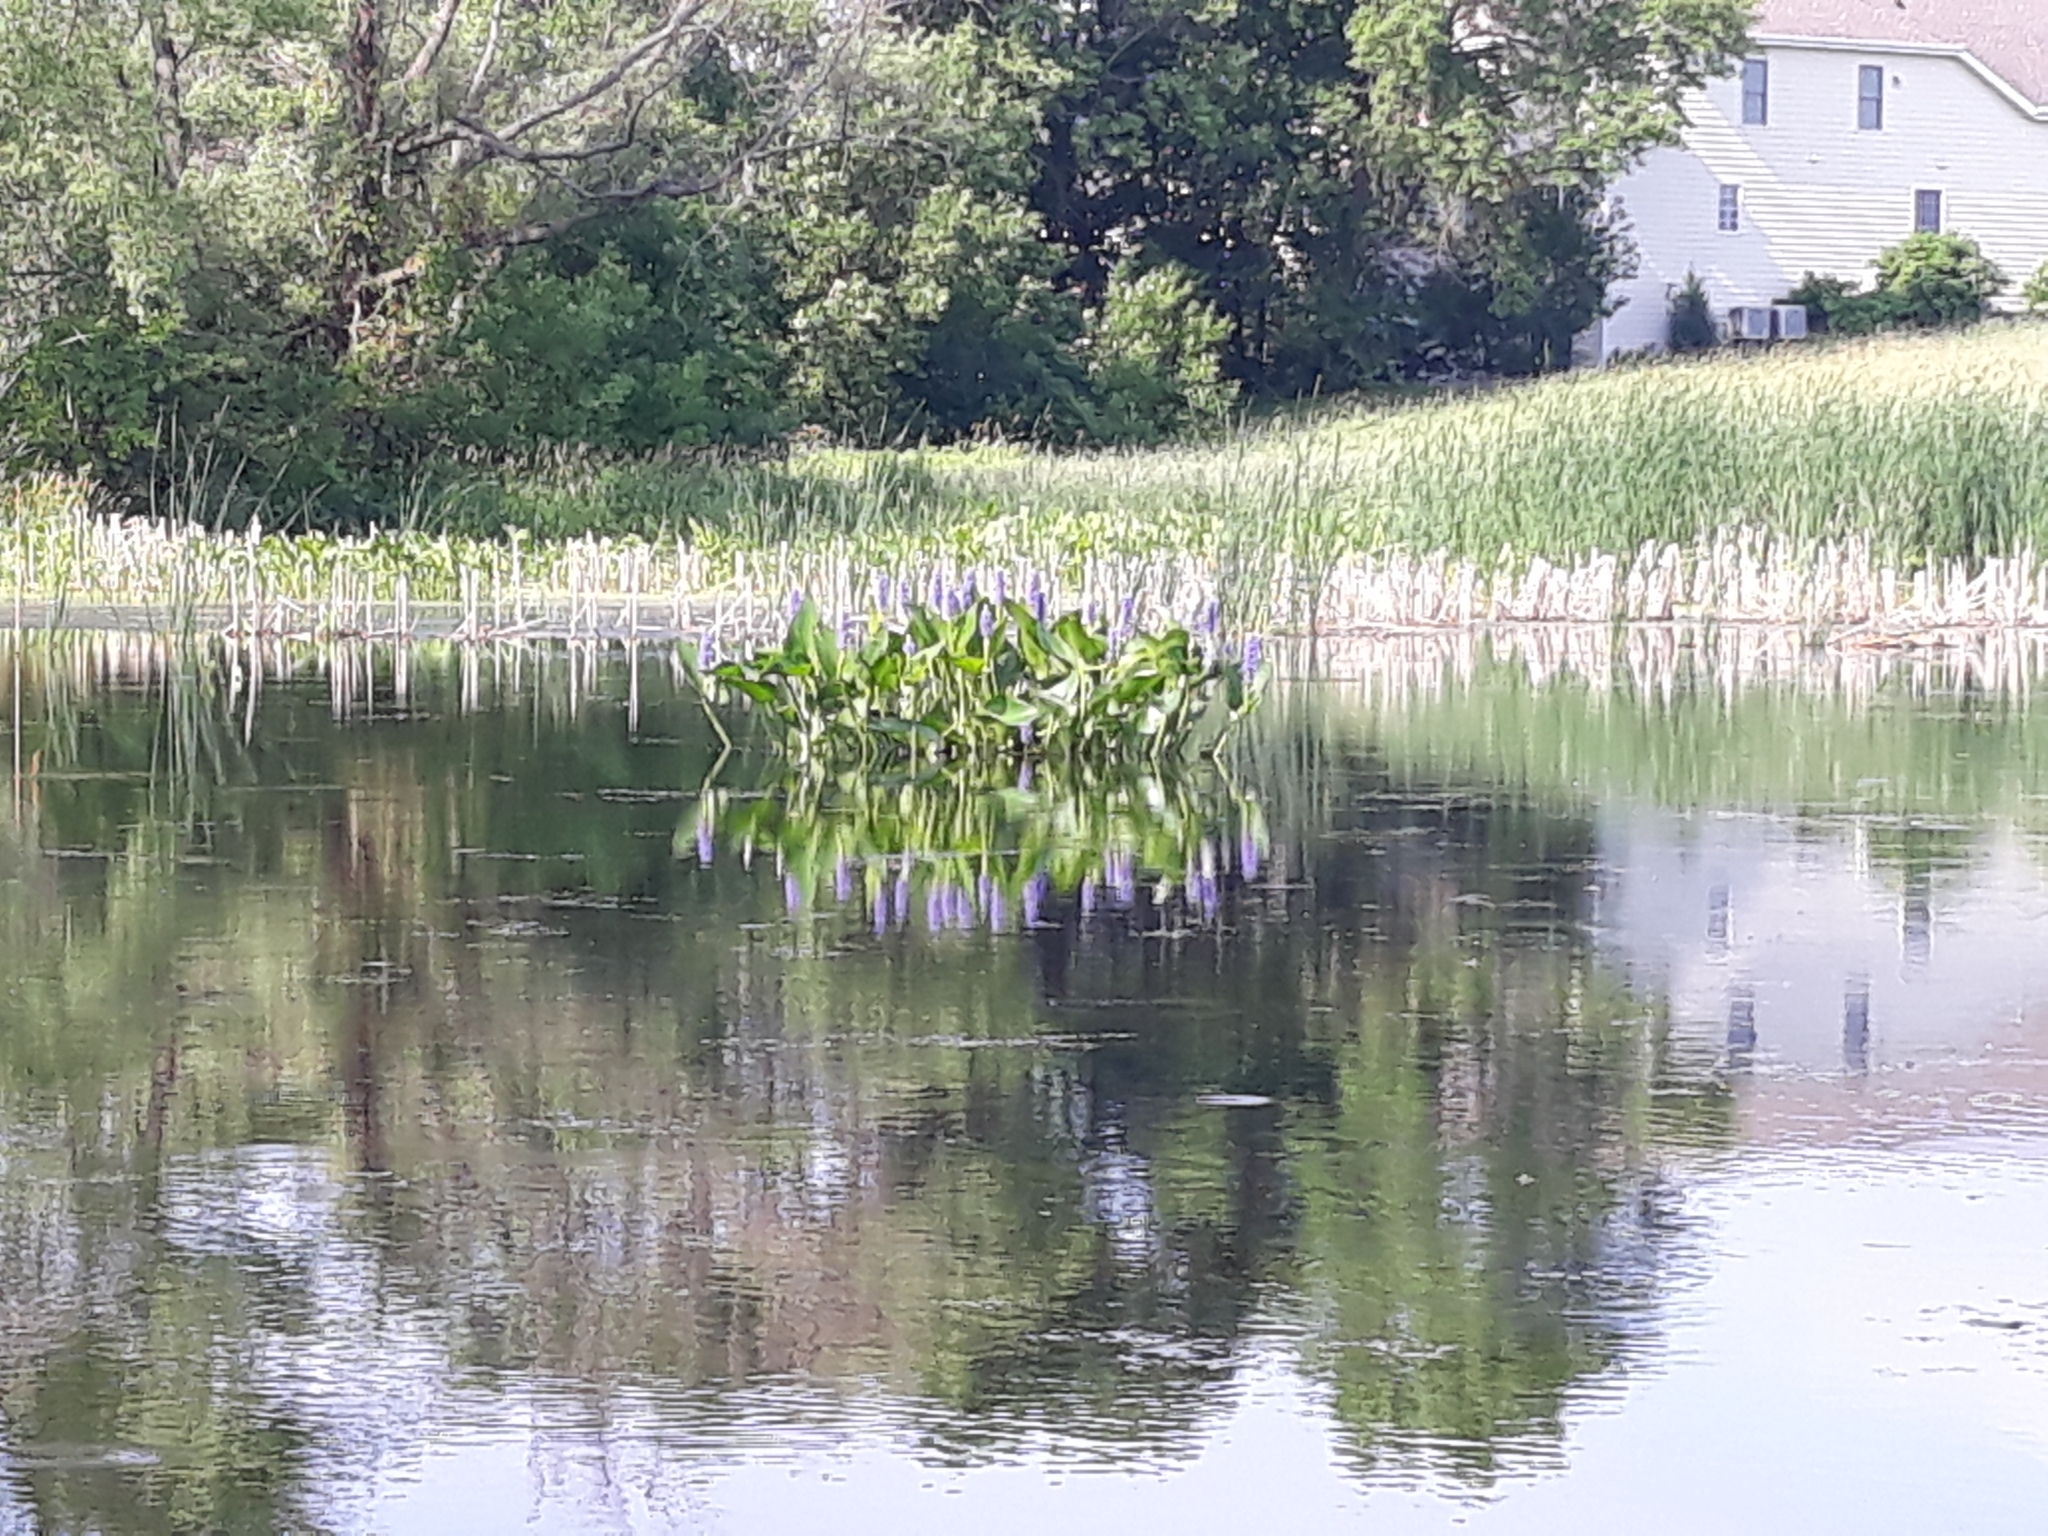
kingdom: Plantae
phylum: Tracheophyta
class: Liliopsida
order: Commelinales
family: Pontederiaceae
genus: Pontederia
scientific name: Pontederia cordata
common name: Pickerelweed
